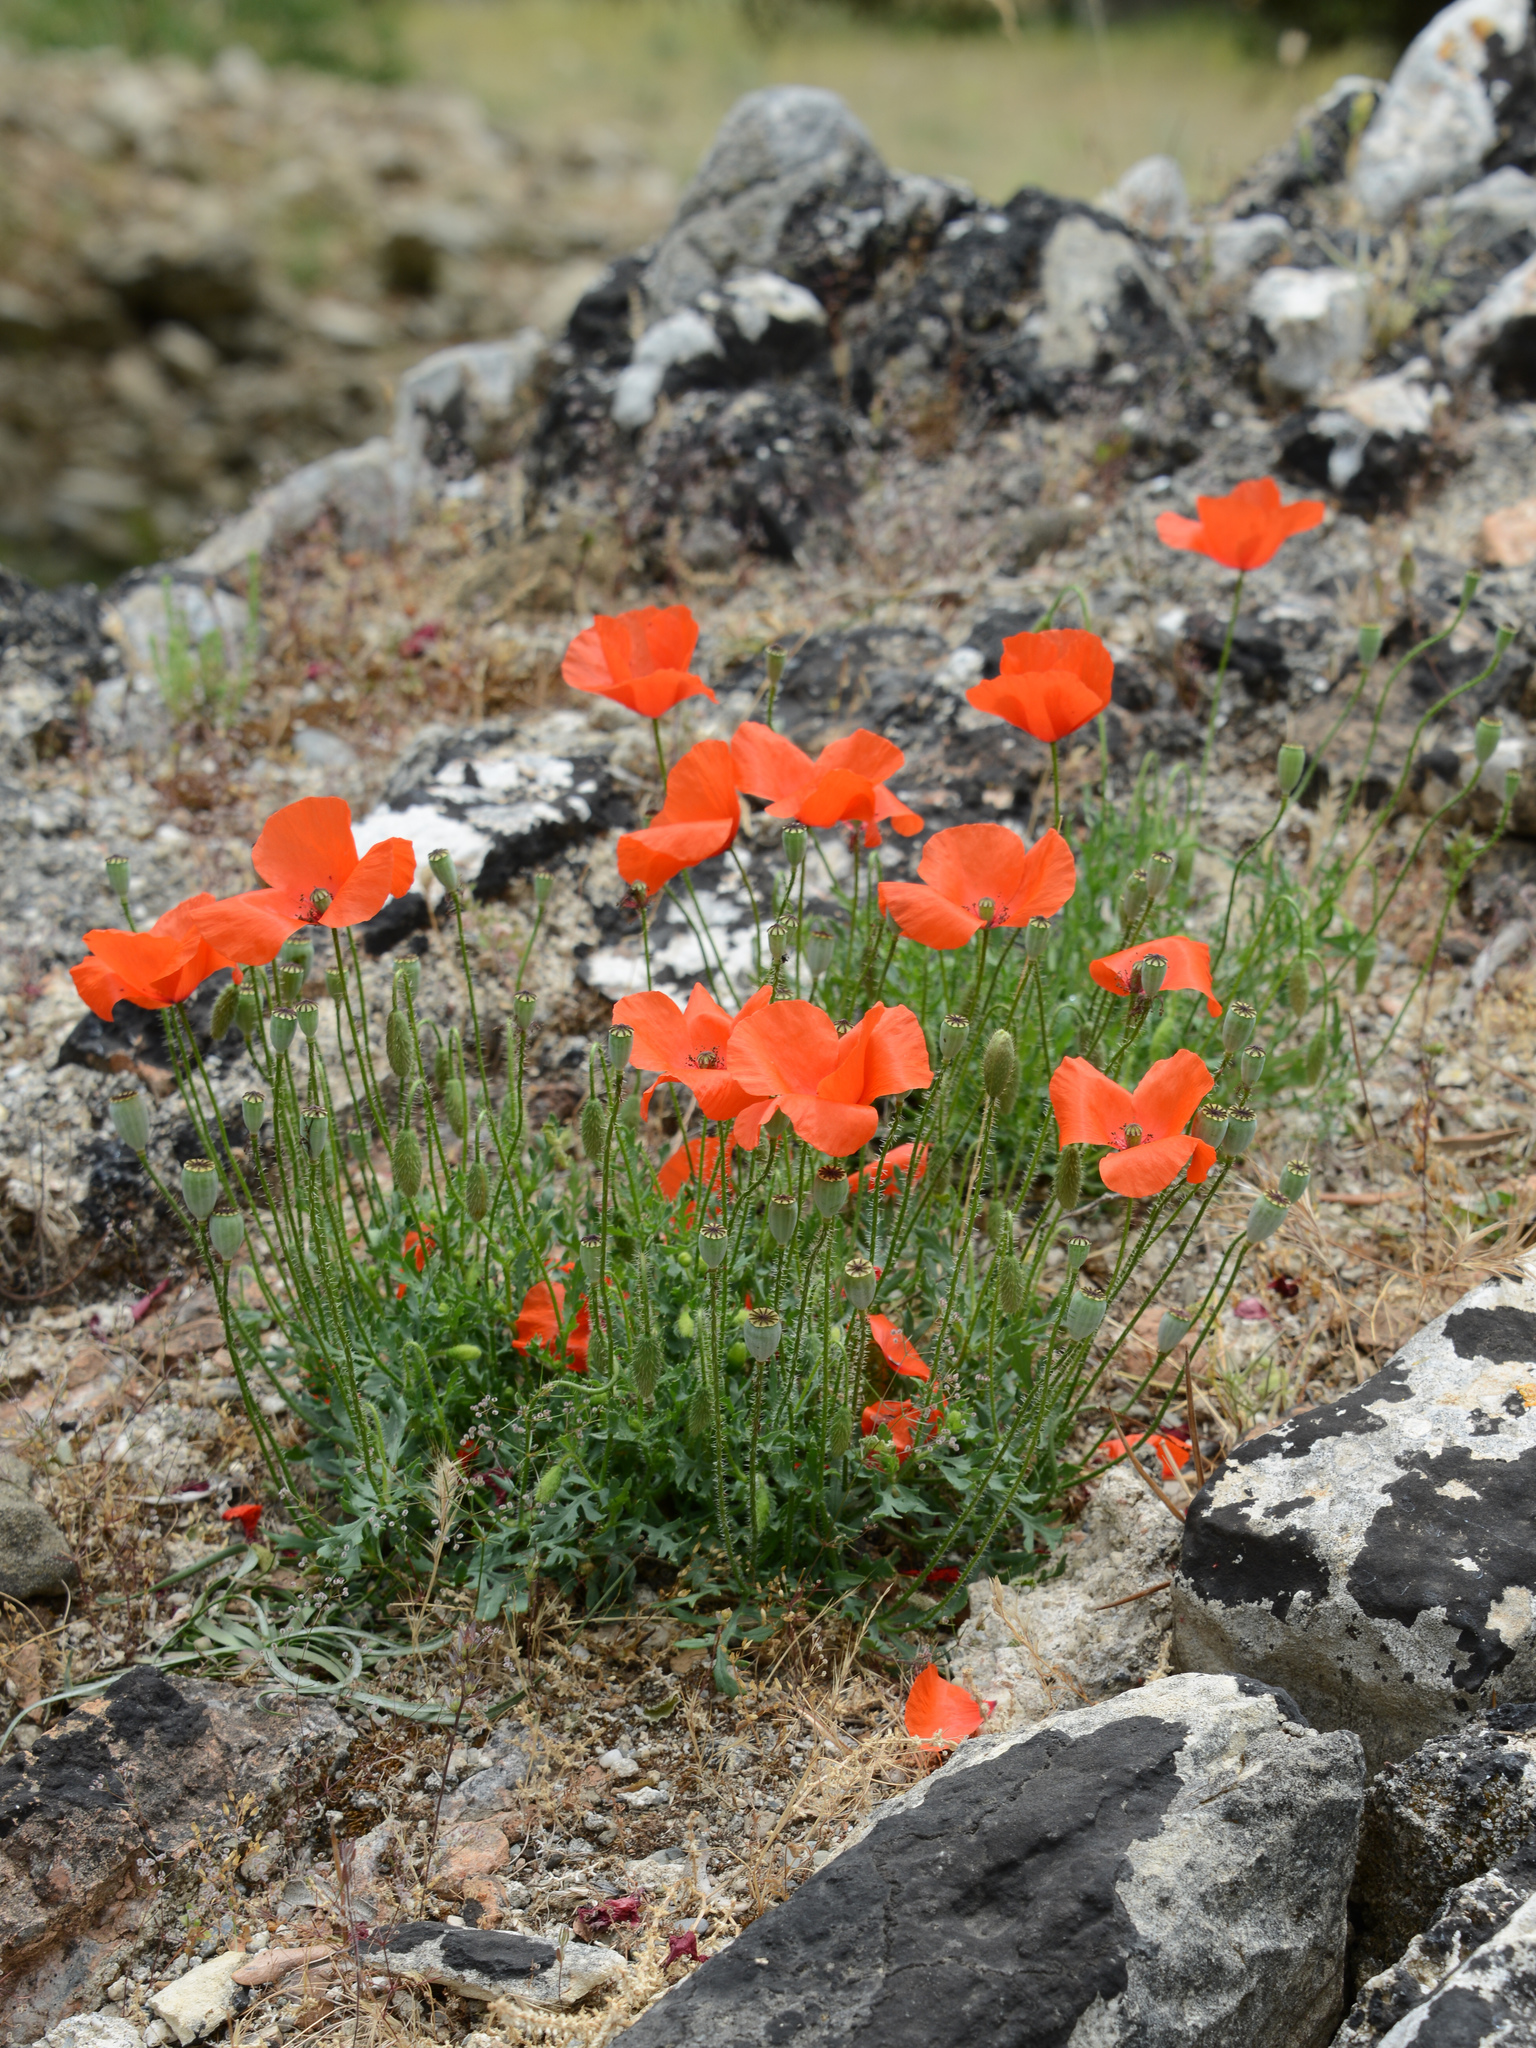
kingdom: Plantae
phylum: Tracheophyta
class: Magnoliopsida
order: Ranunculales
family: Papaveraceae
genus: Papaver
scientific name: Papaver rhoeas
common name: Corn poppy
